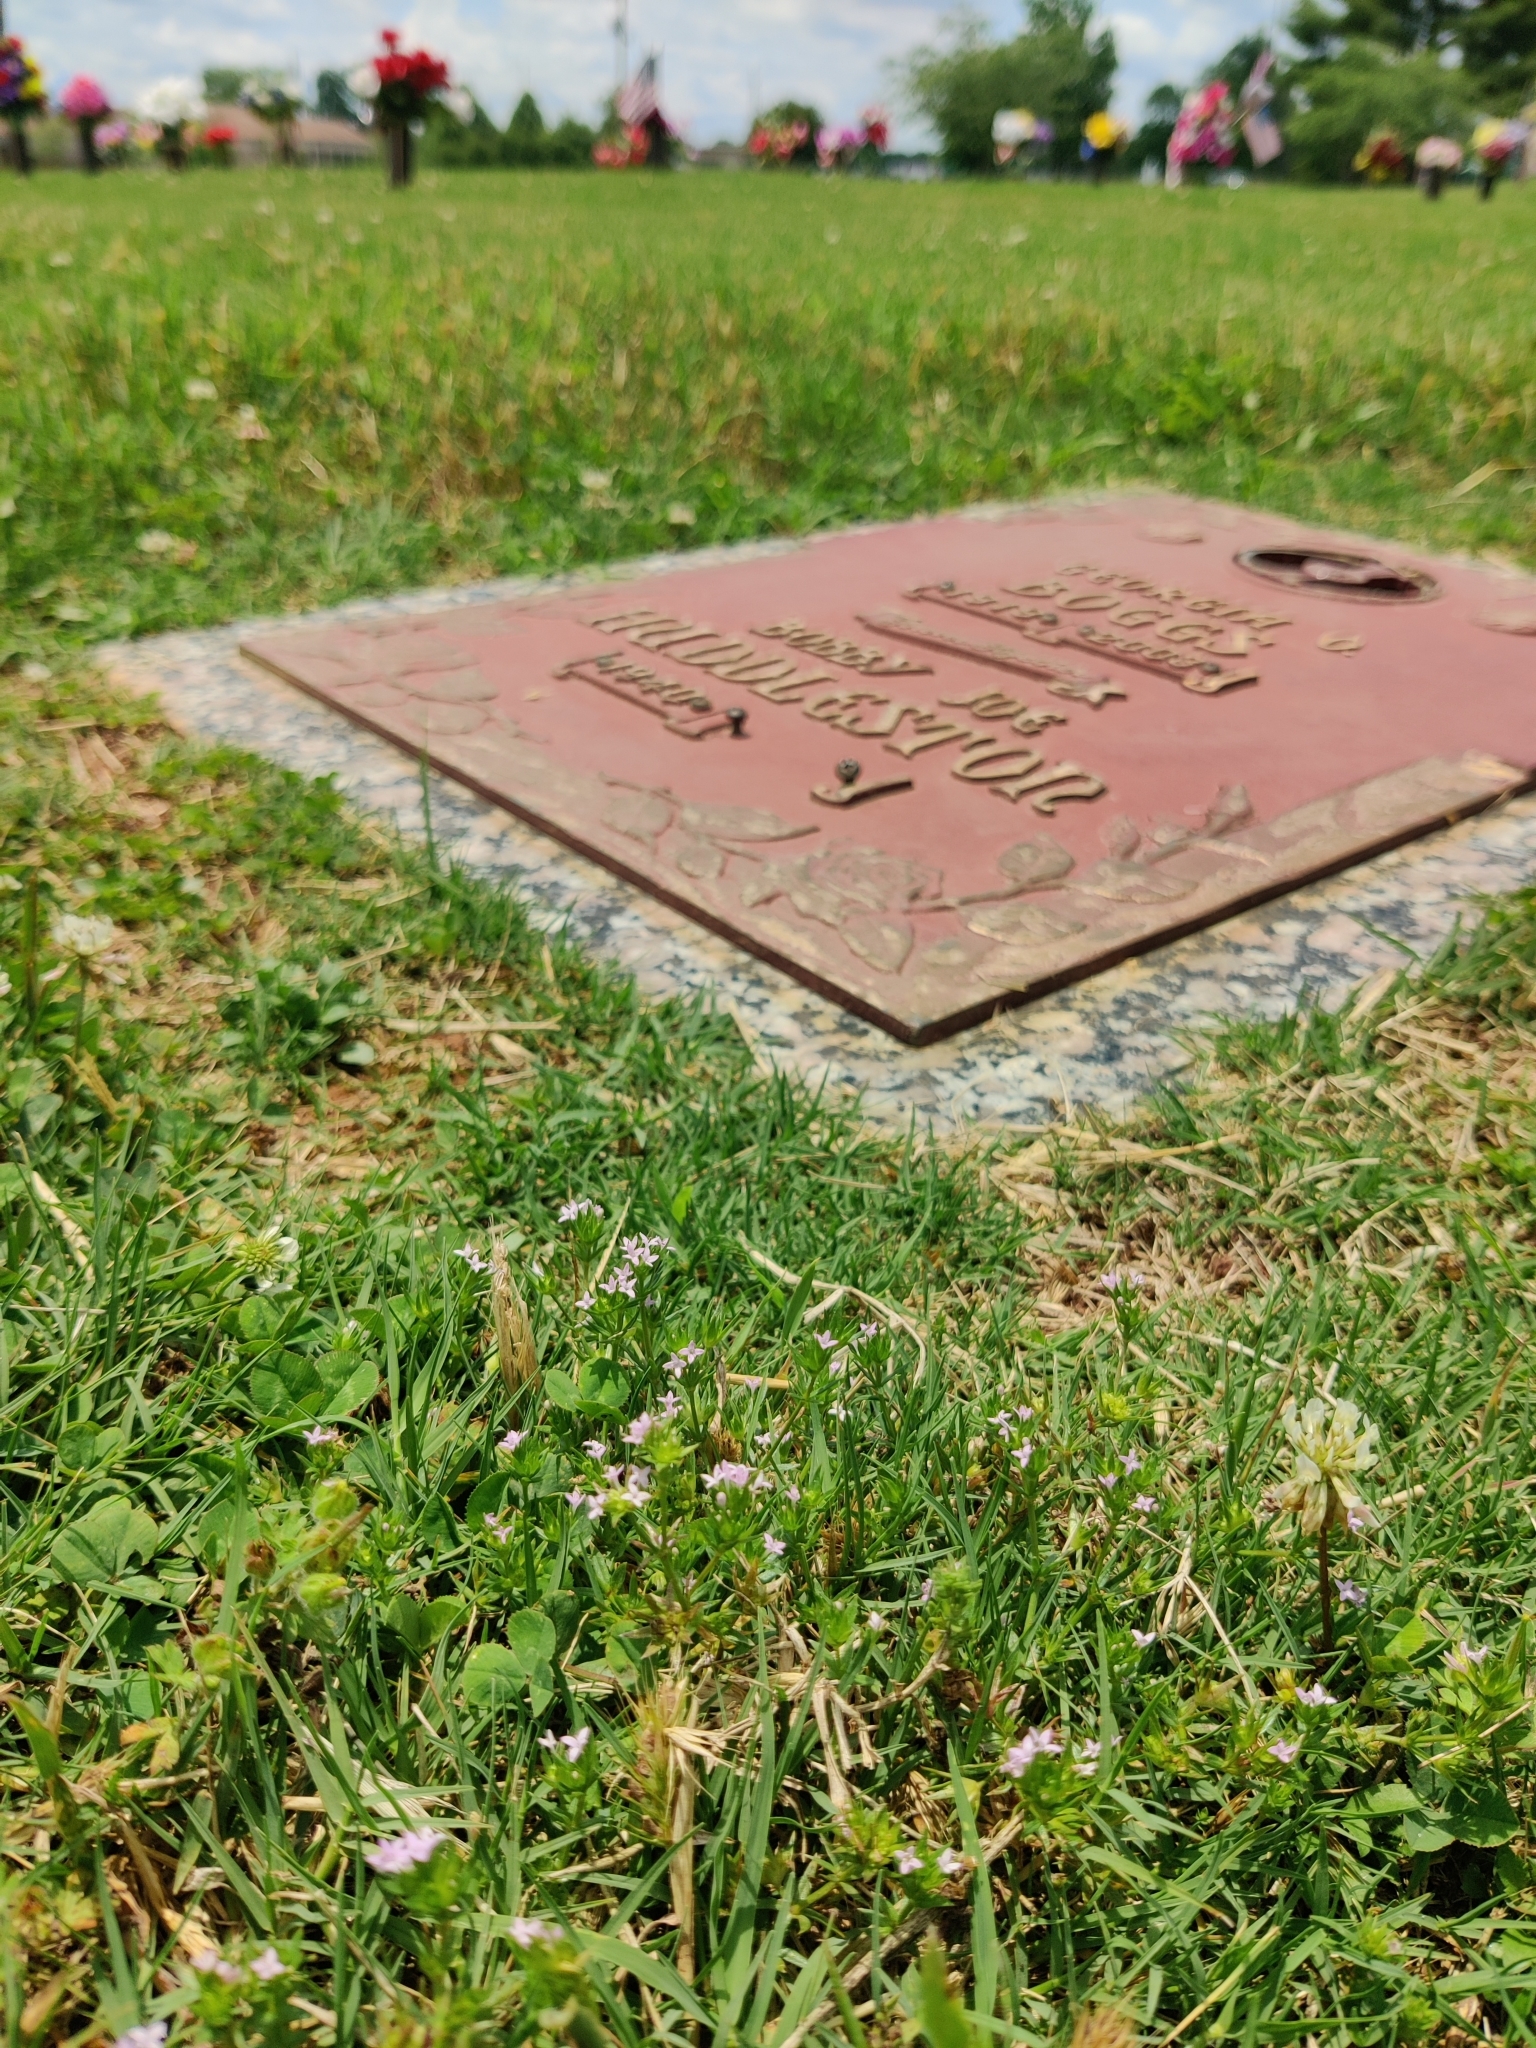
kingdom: Plantae
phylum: Tracheophyta
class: Magnoliopsida
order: Gentianales
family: Rubiaceae
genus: Sherardia
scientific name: Sherardia arvensis
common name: Field madder
